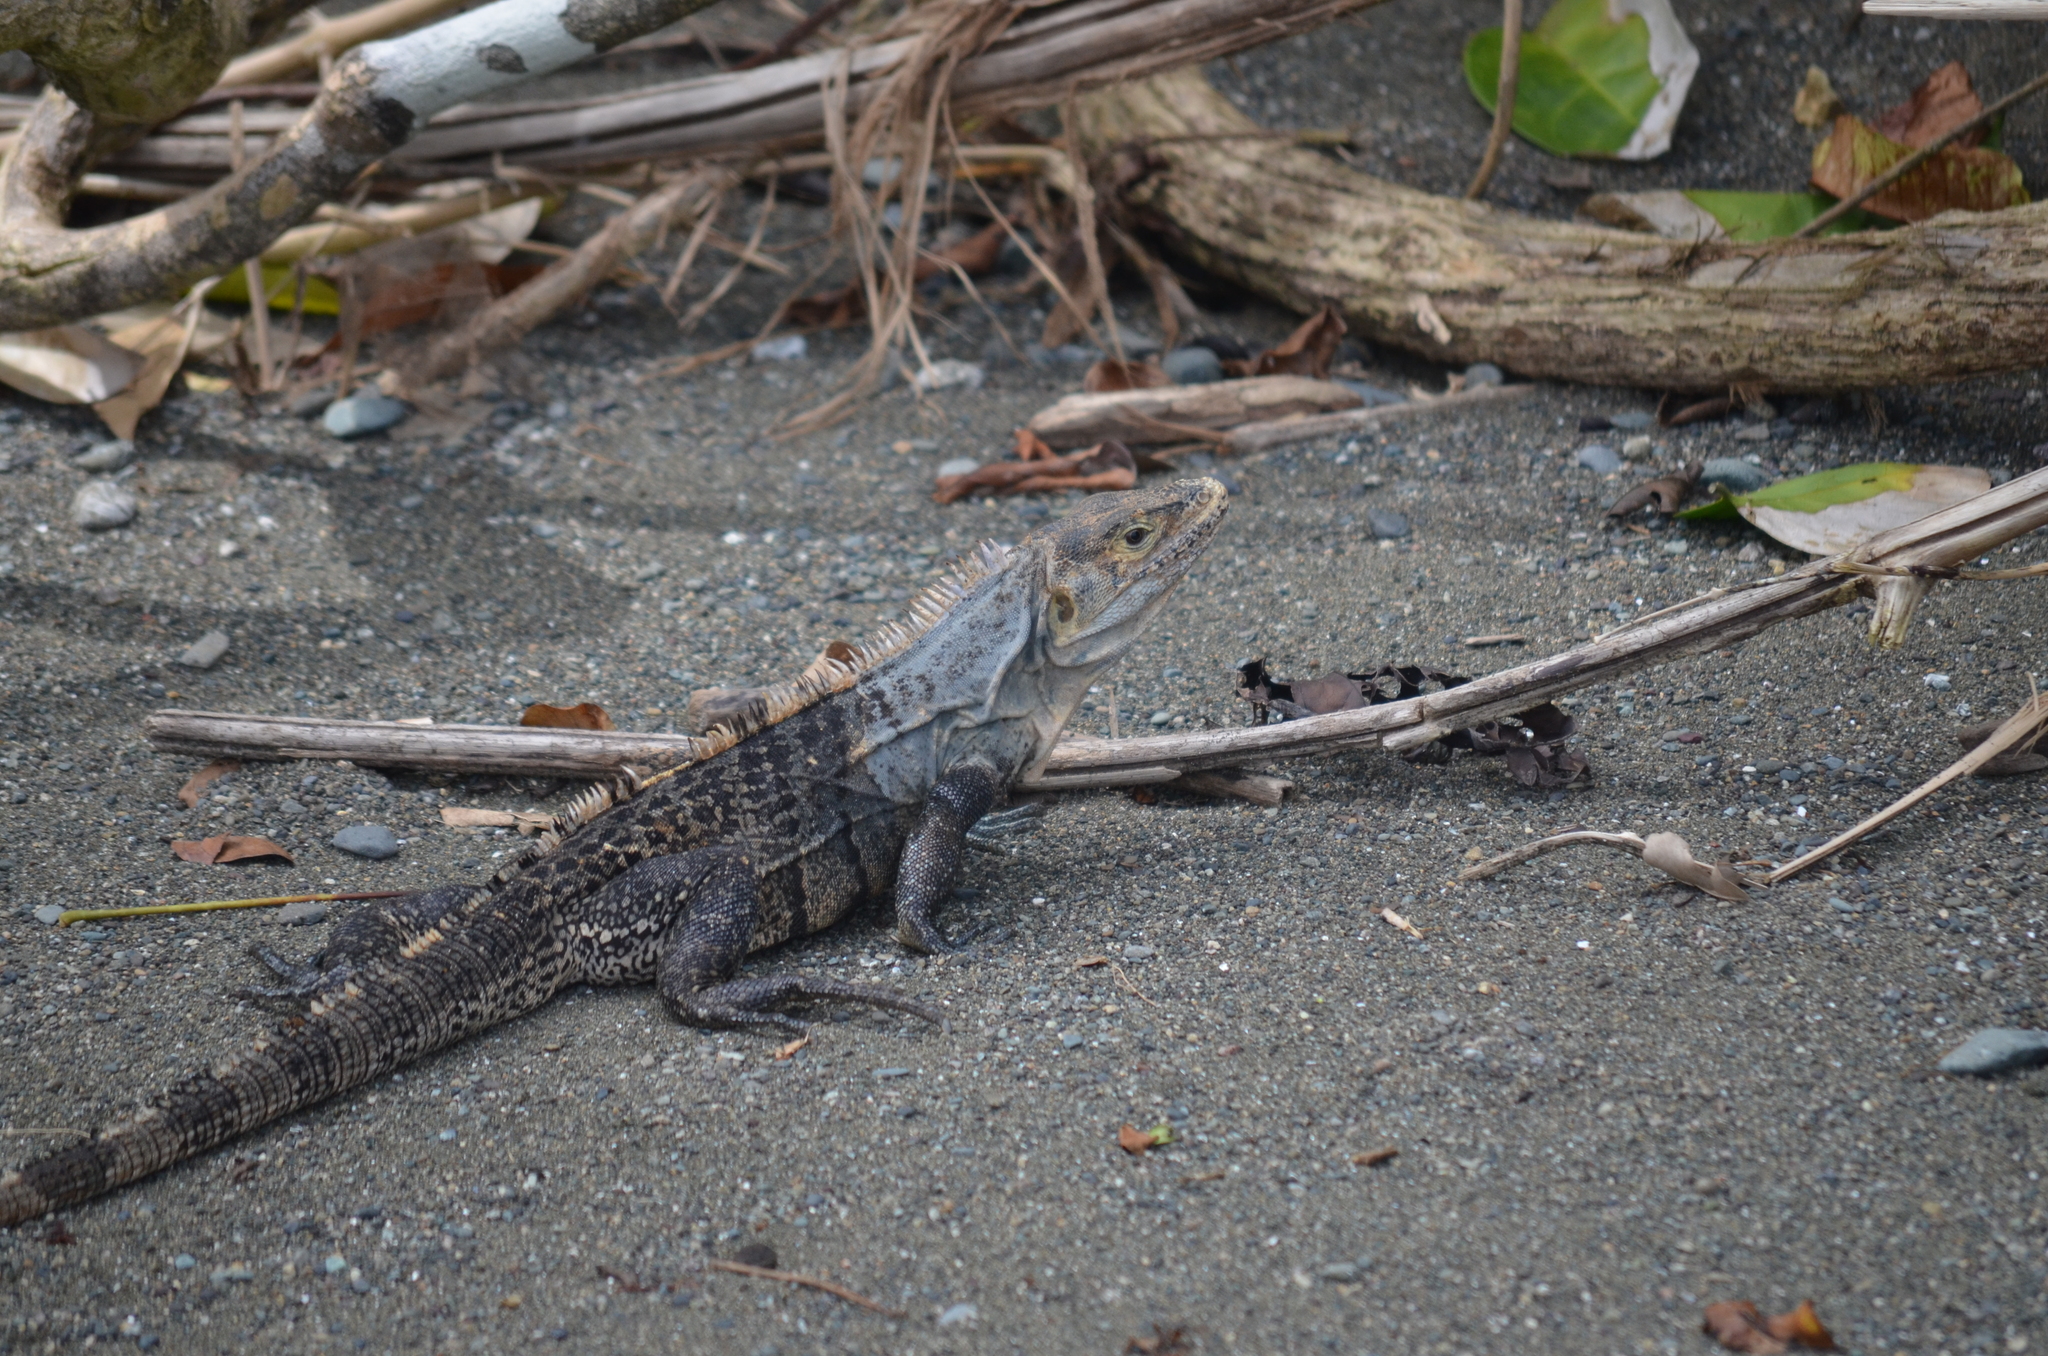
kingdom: Animalia
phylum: Chordata
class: Squamata
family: Iguanidae
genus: Ctenosaura
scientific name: Ctenosaura similis
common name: Black spiny-tailed iguana
